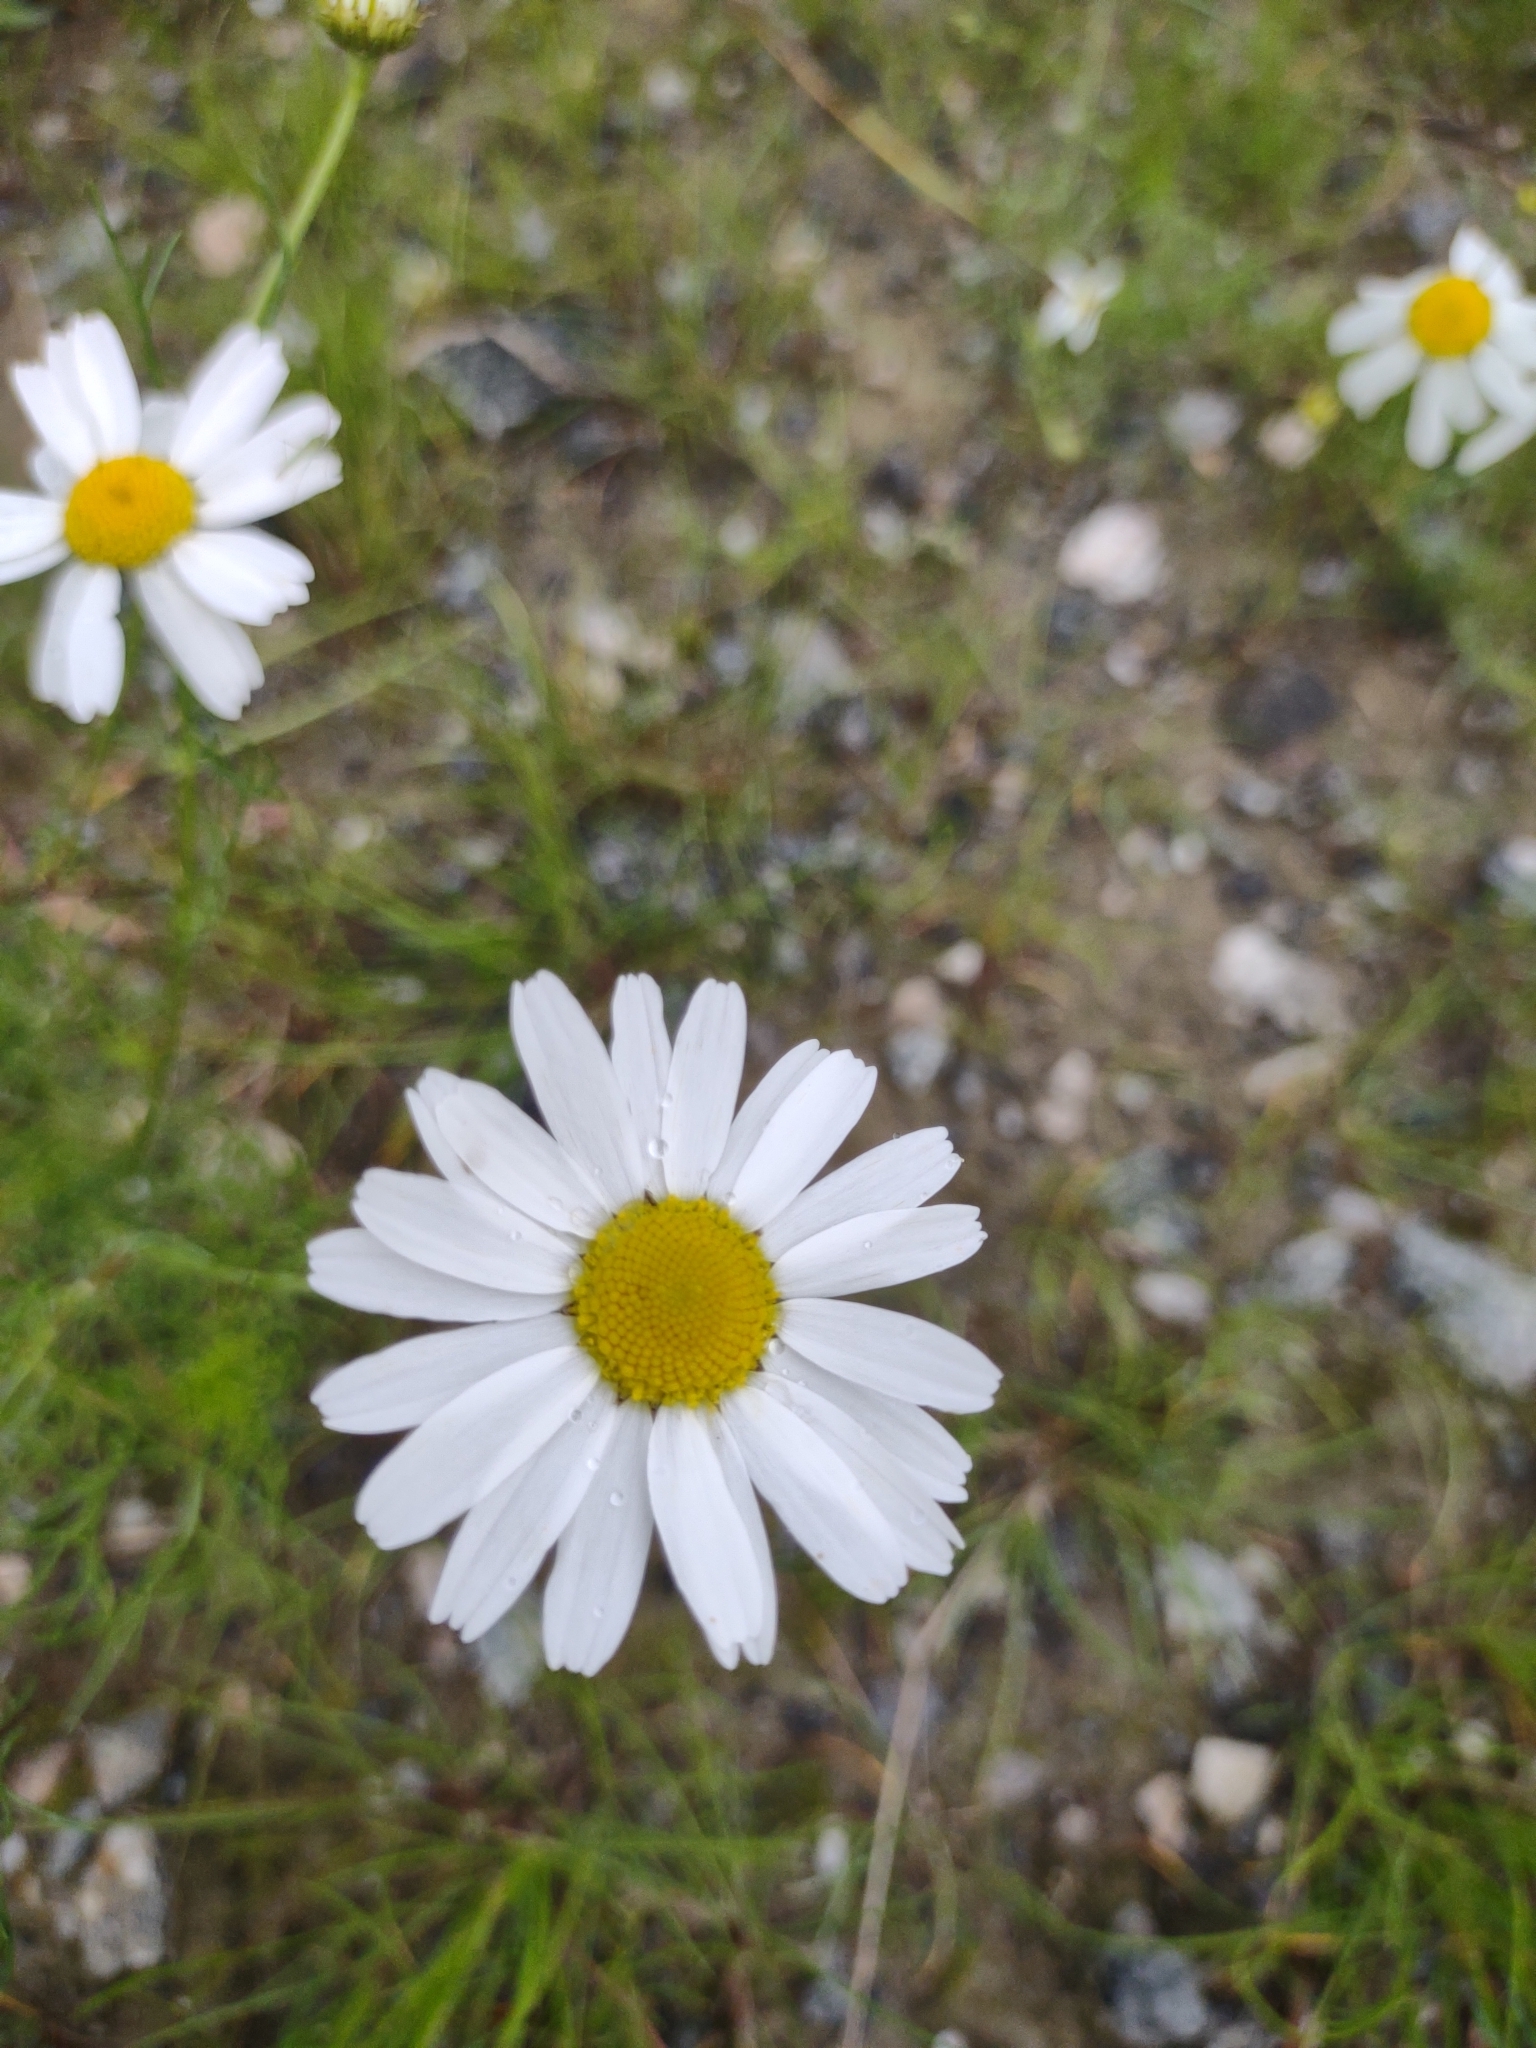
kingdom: Plantae
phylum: Tracheophyta
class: Magnoliopsida
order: Asterales
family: Asteraceae
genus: Tripleurospermum
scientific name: Tripleurospermum inodorum
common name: Scentless mayweed
